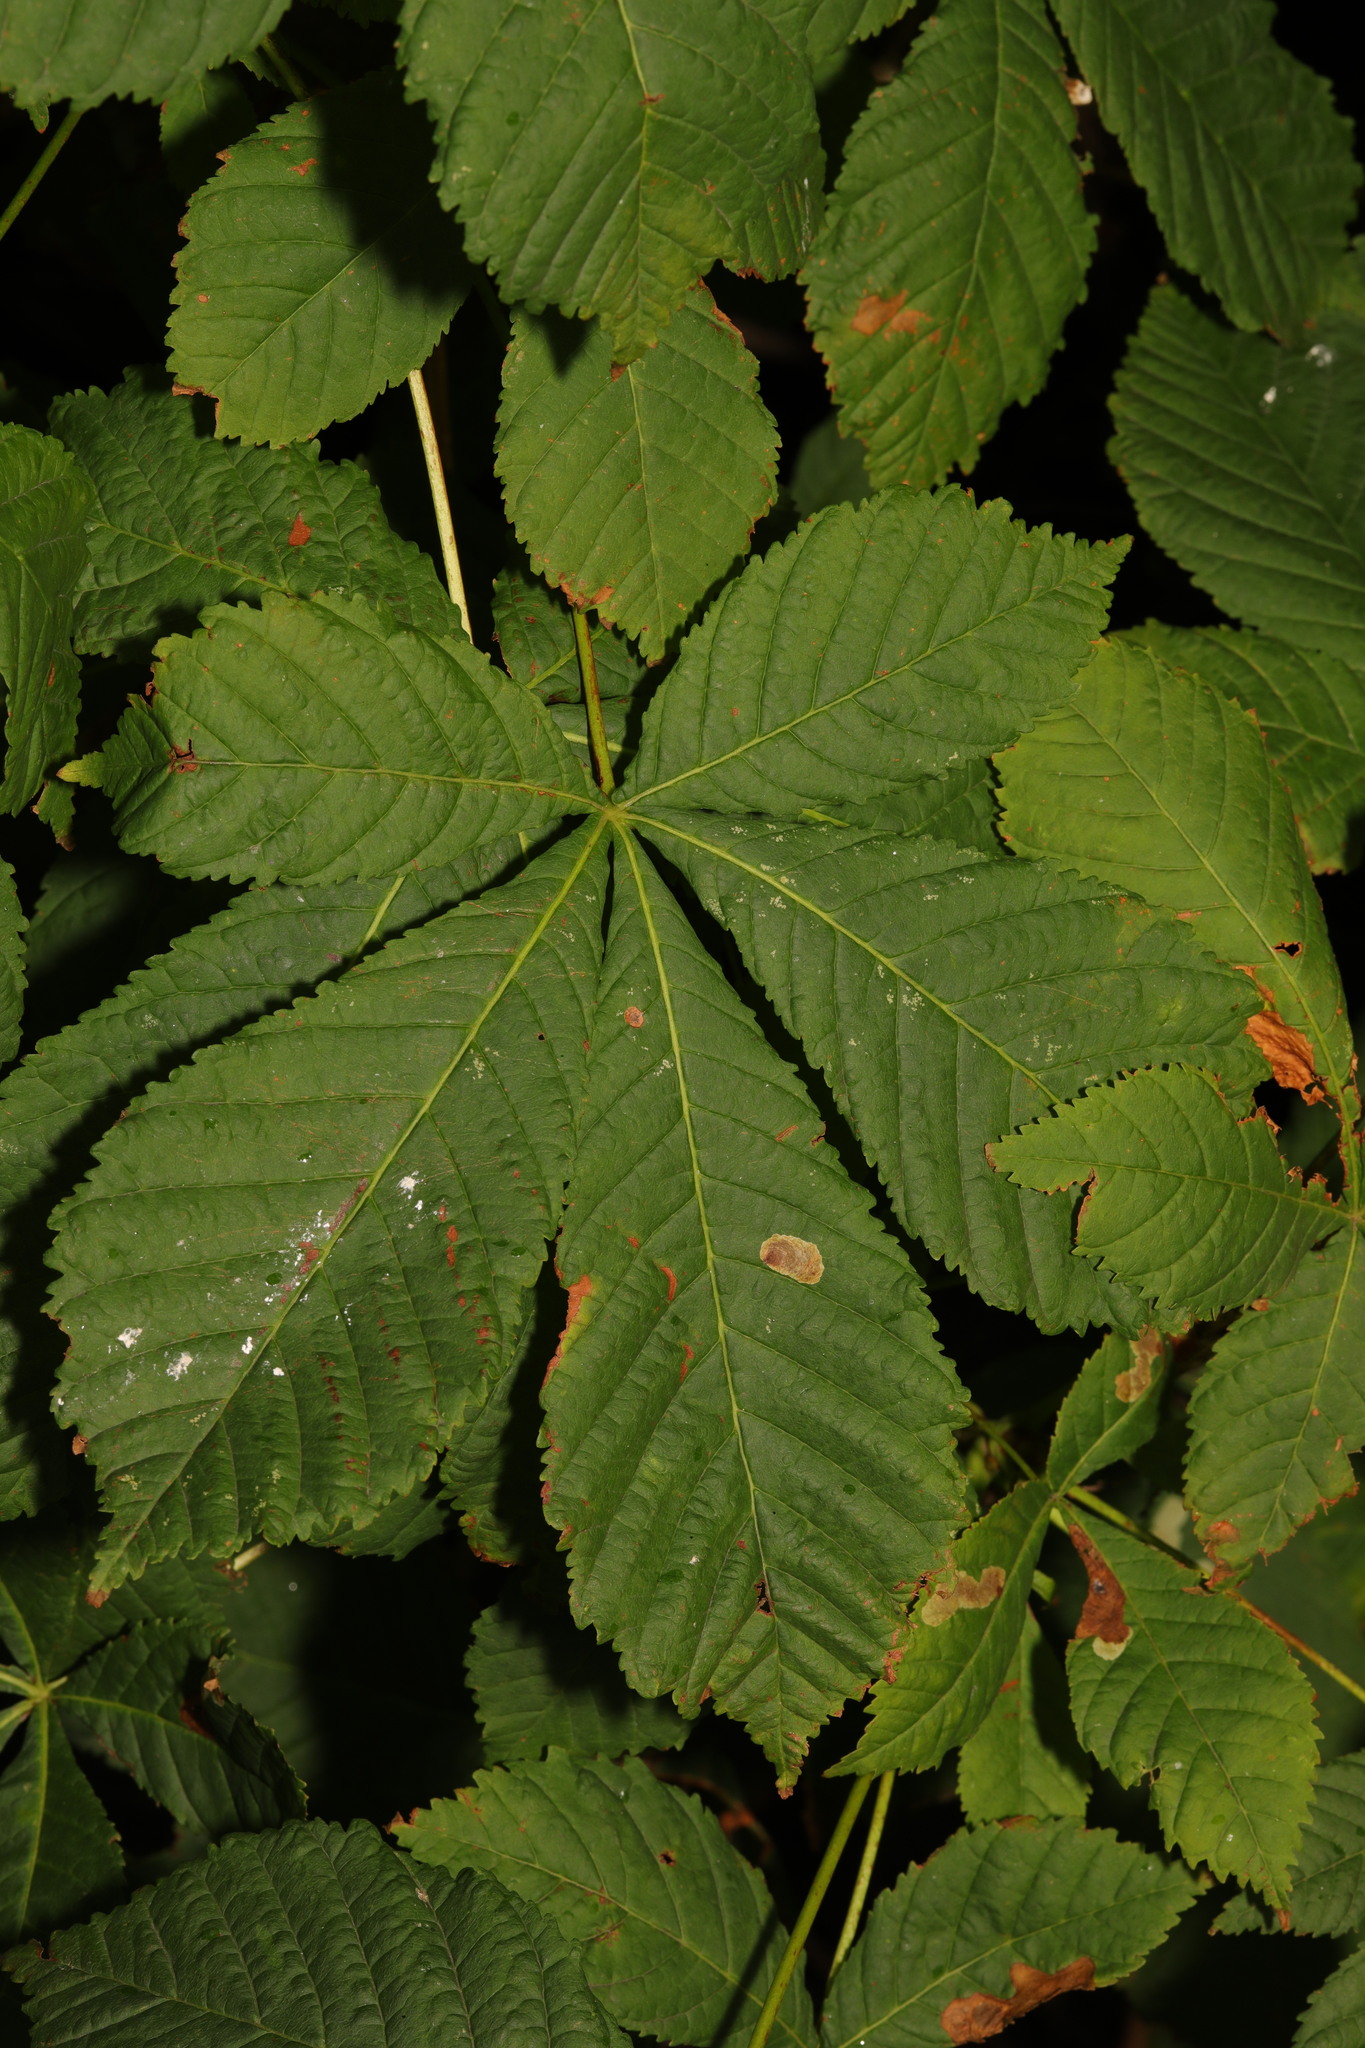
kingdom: Animalia
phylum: Arthropoda
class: Insecta
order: Lepidoptera
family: Gracillariidae
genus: Cameraria
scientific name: Cameraria ohridella
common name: Horse-chestnut leaf-miner
